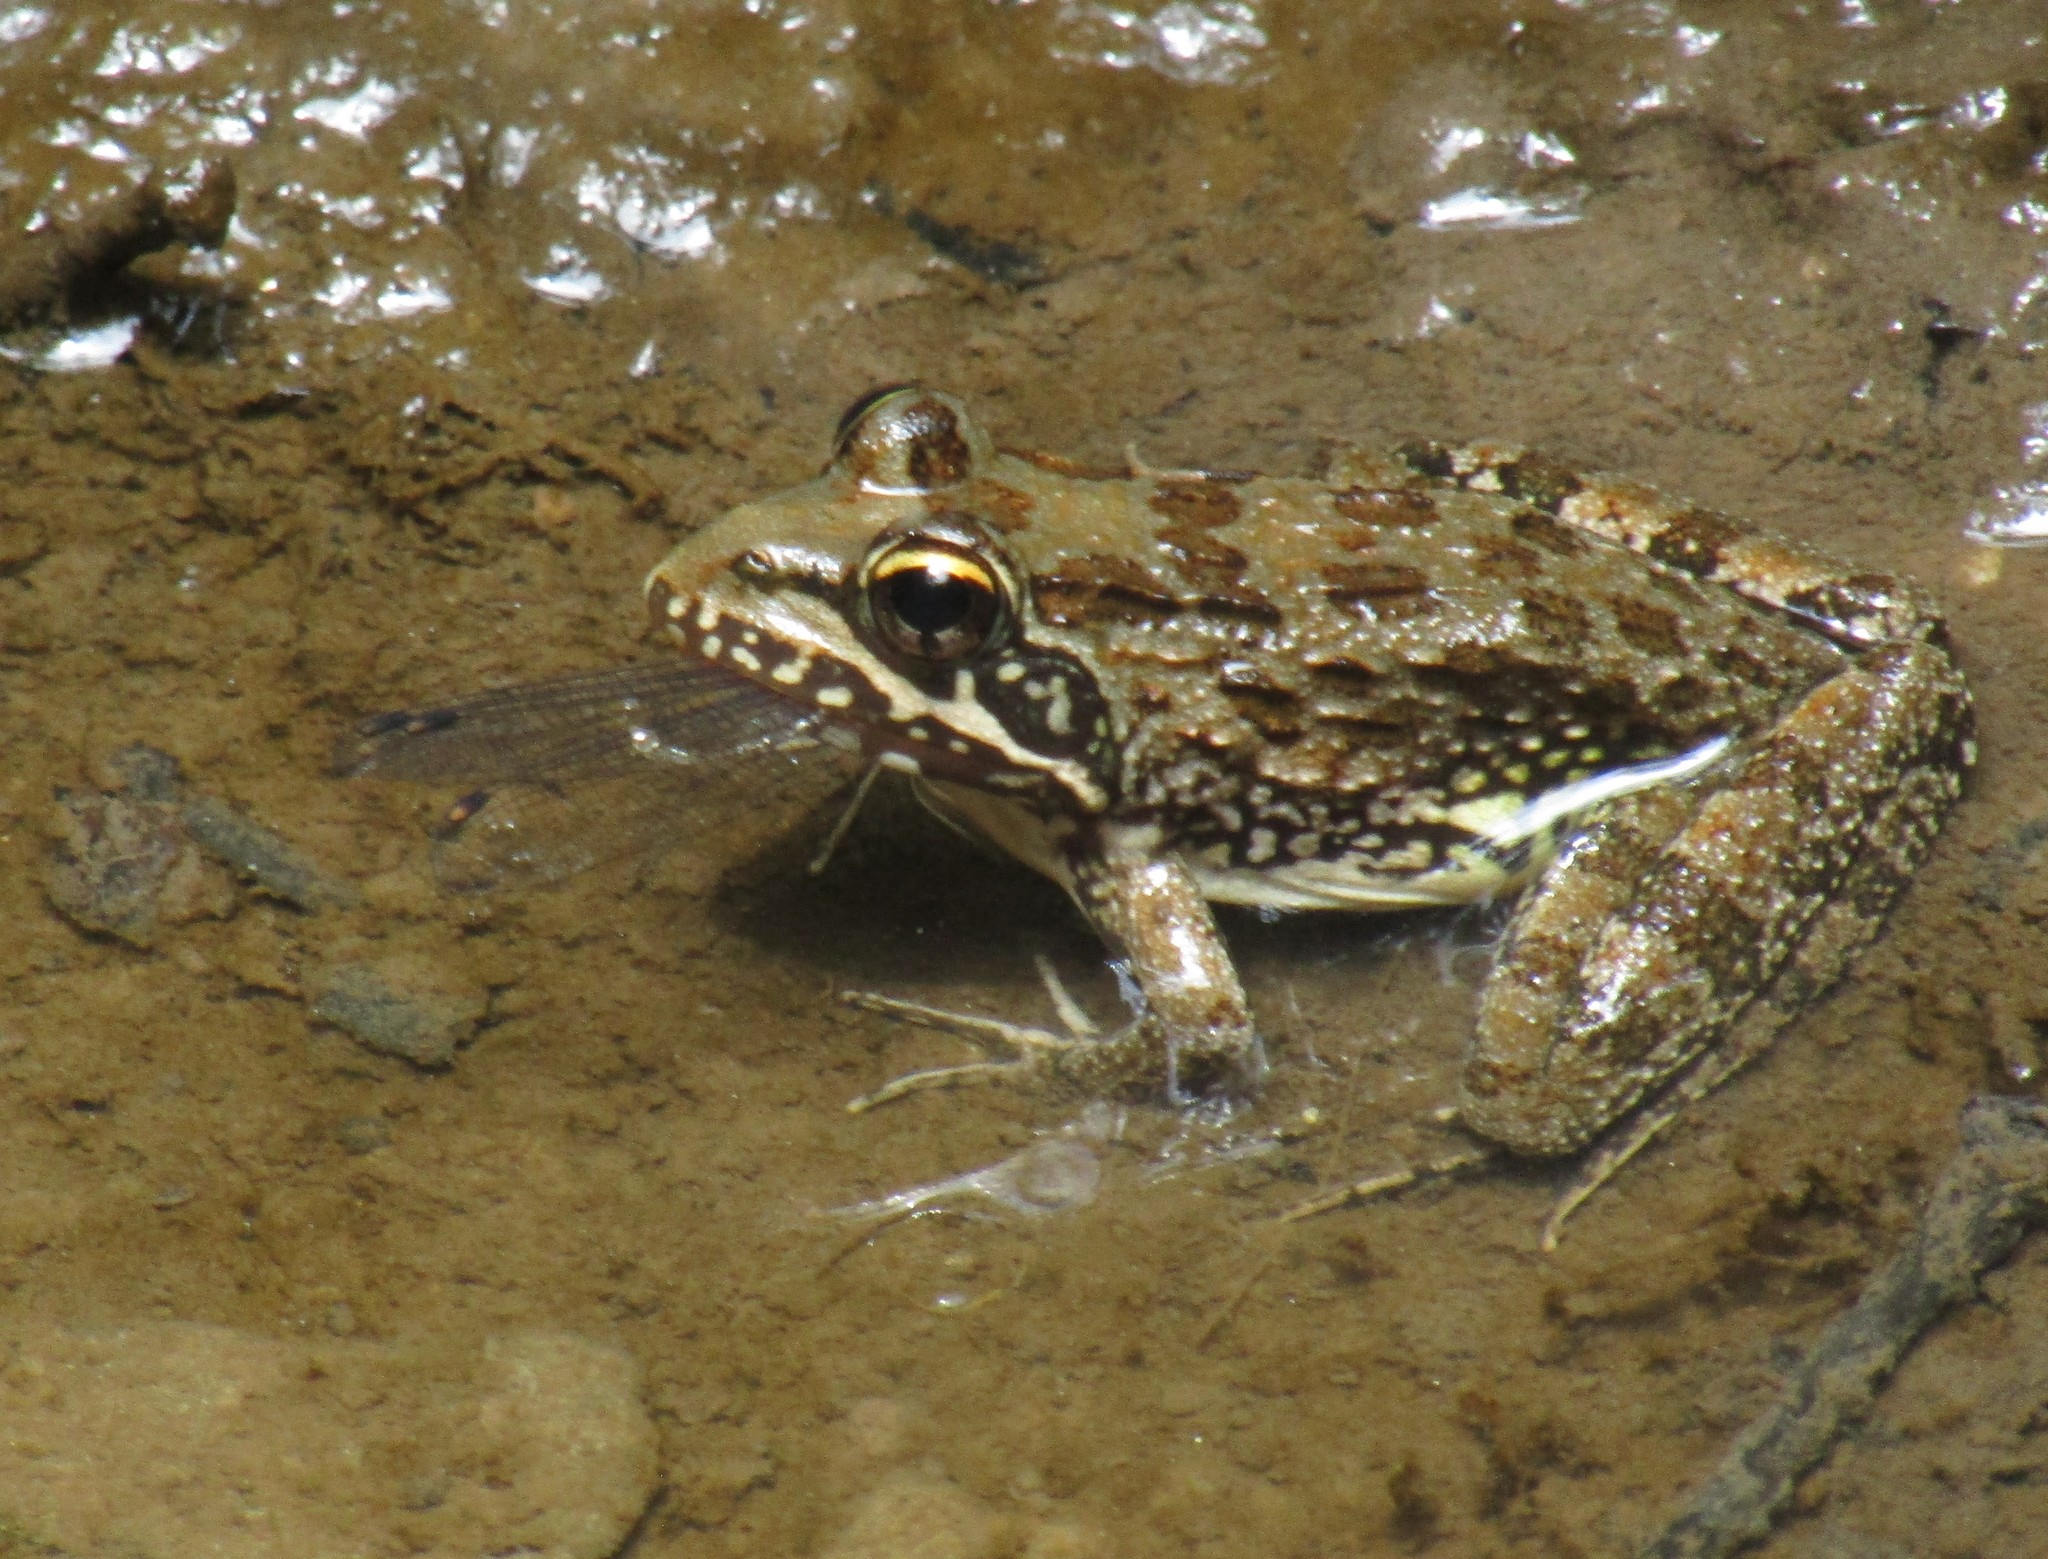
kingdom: Animalia
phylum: Chordata
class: Amphibia
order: Anura
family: Pyxicephalidae
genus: Amietia
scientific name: Amietia fuscigula
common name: Cape rana
